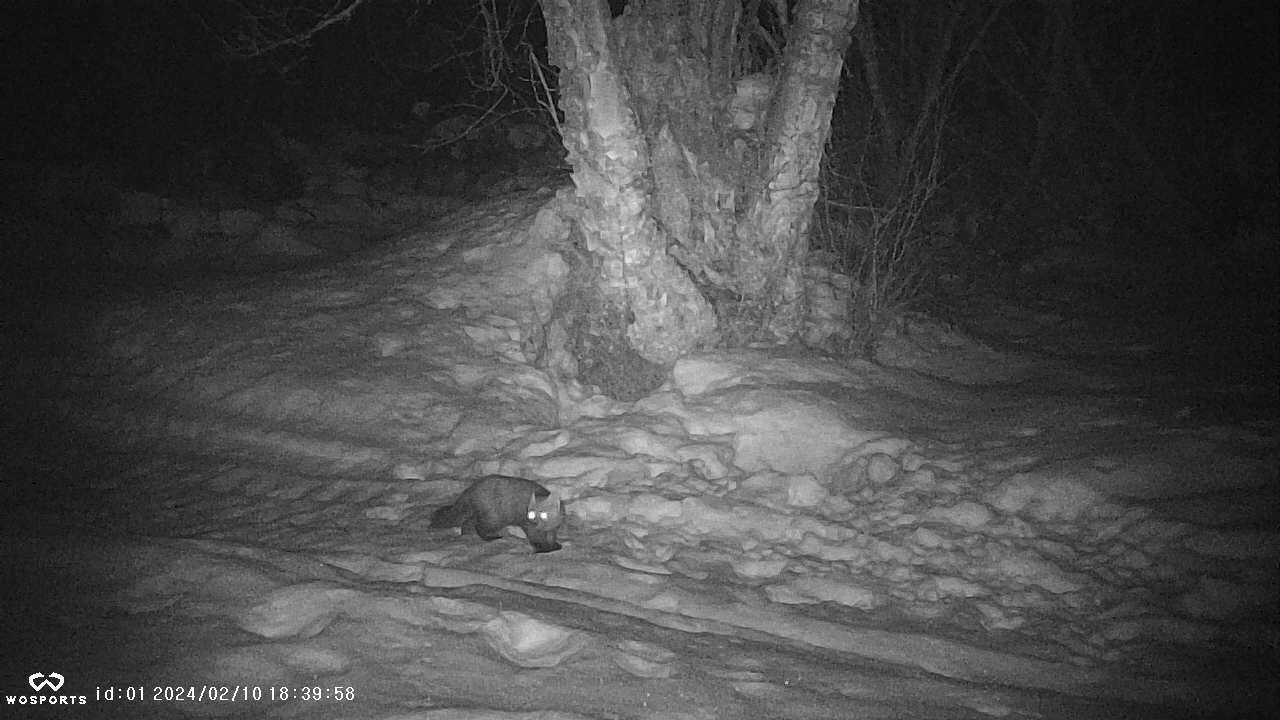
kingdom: Animalia
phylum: Chordata
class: Mammalia
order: Carnivora
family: Mustelidae
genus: Martes
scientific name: Martes americana
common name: American marten
